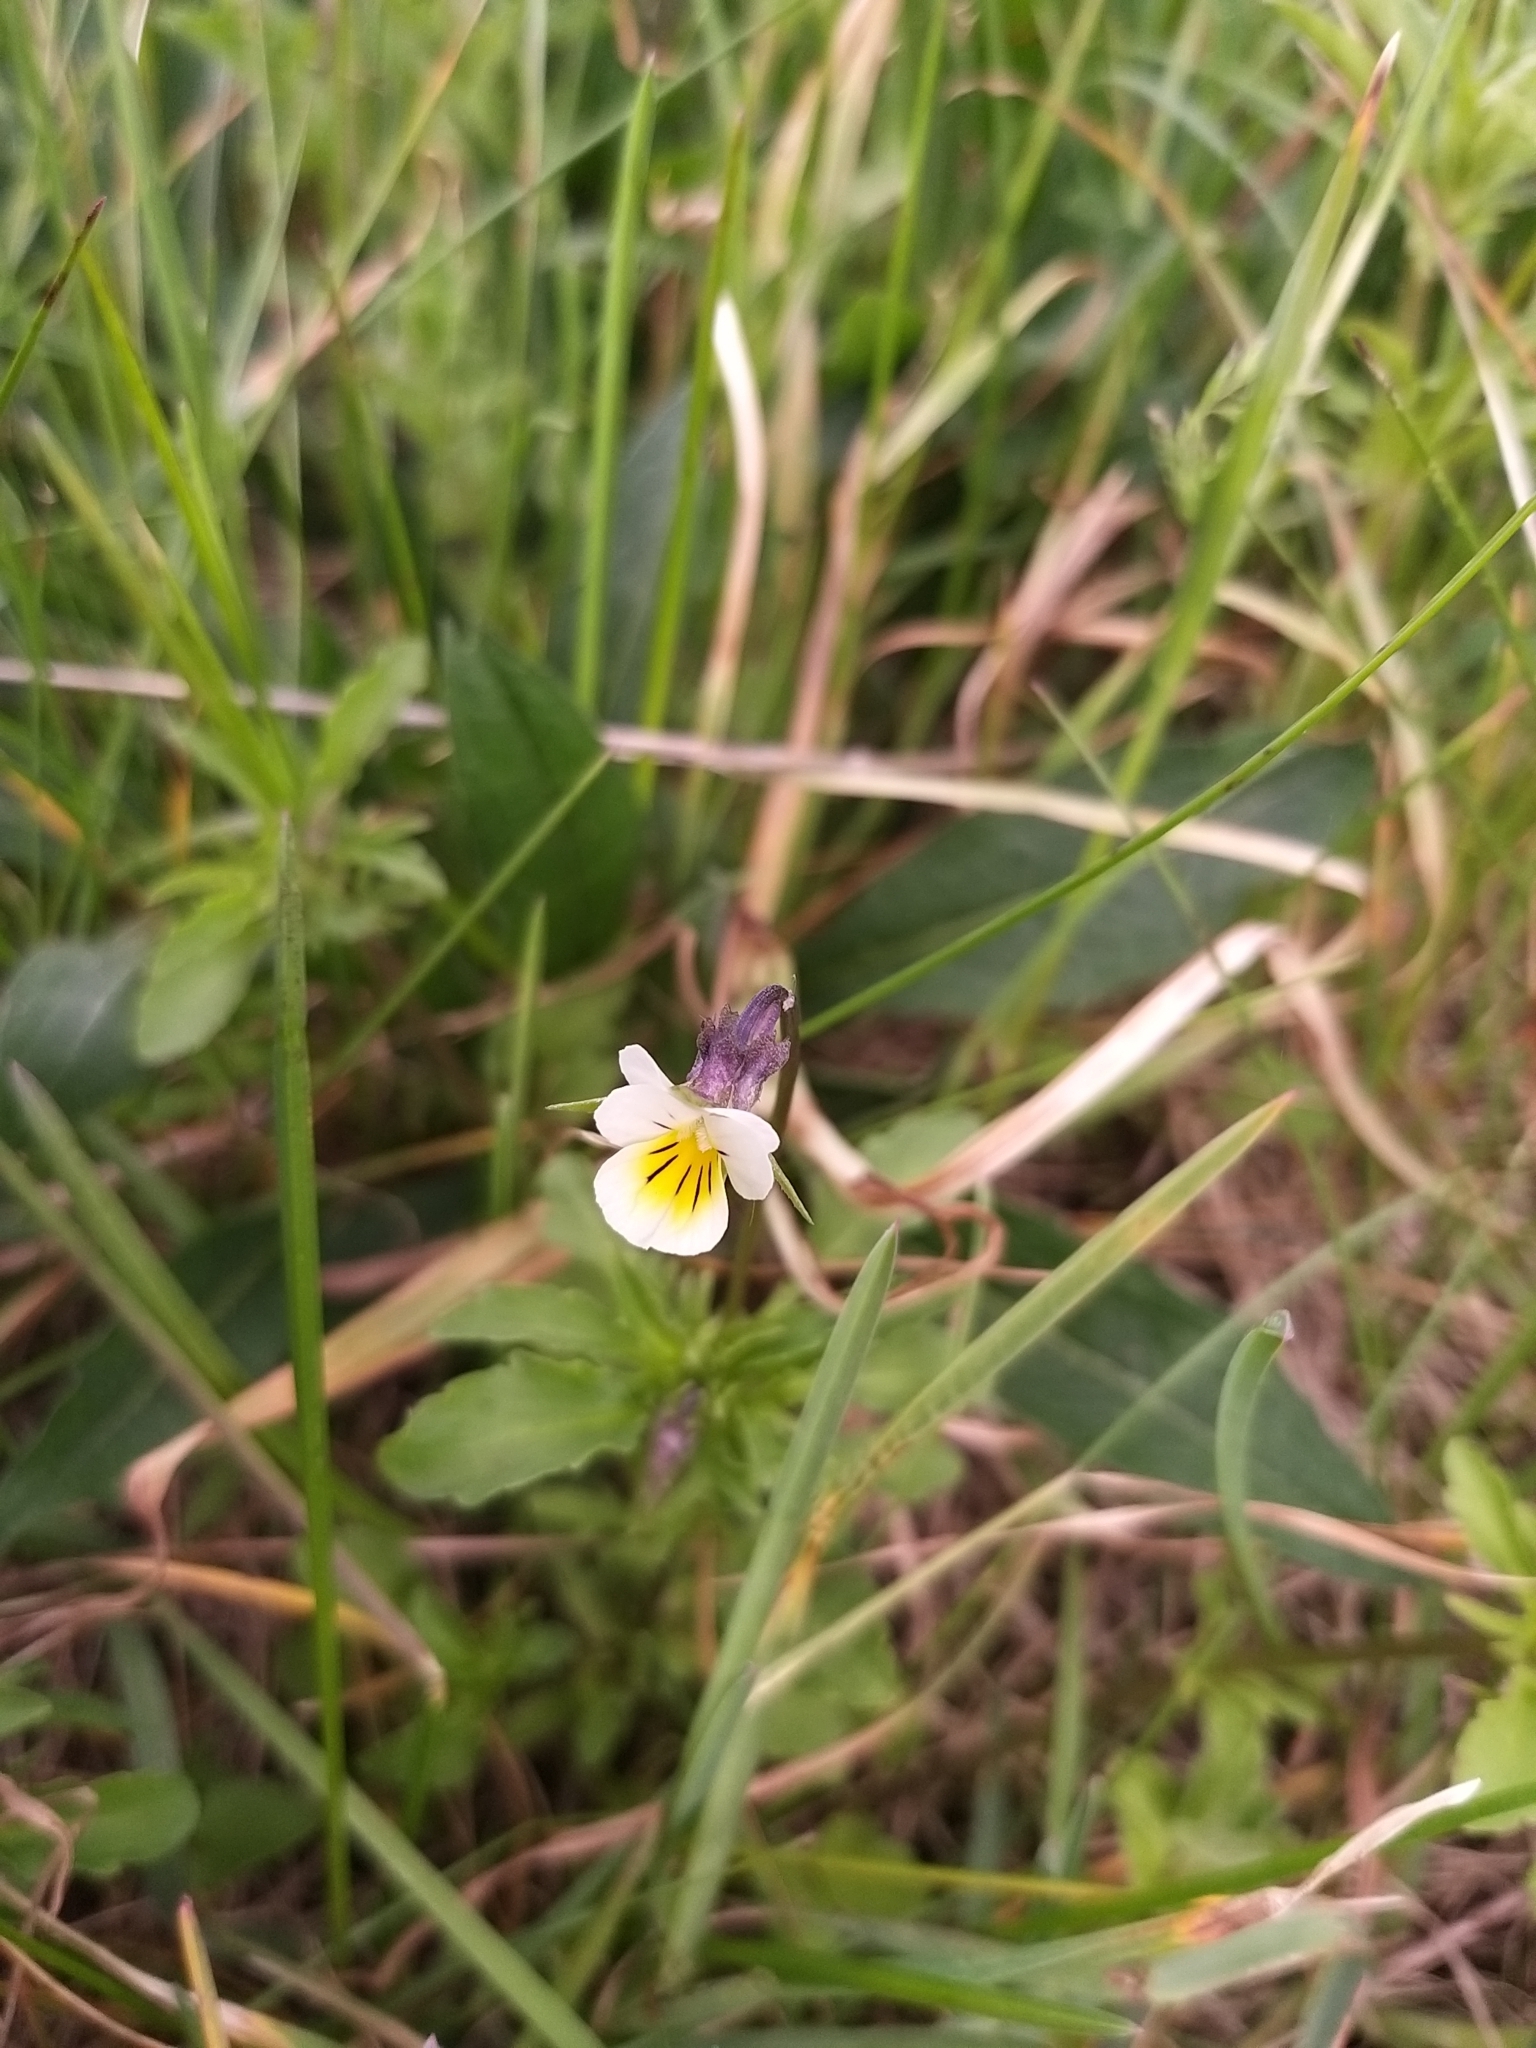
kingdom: Plantae
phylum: Tracheophyta
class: Magnoliopsida
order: Malpighiales
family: Violaceae
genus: Viola
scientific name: Viola arvensis
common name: Field pansy
